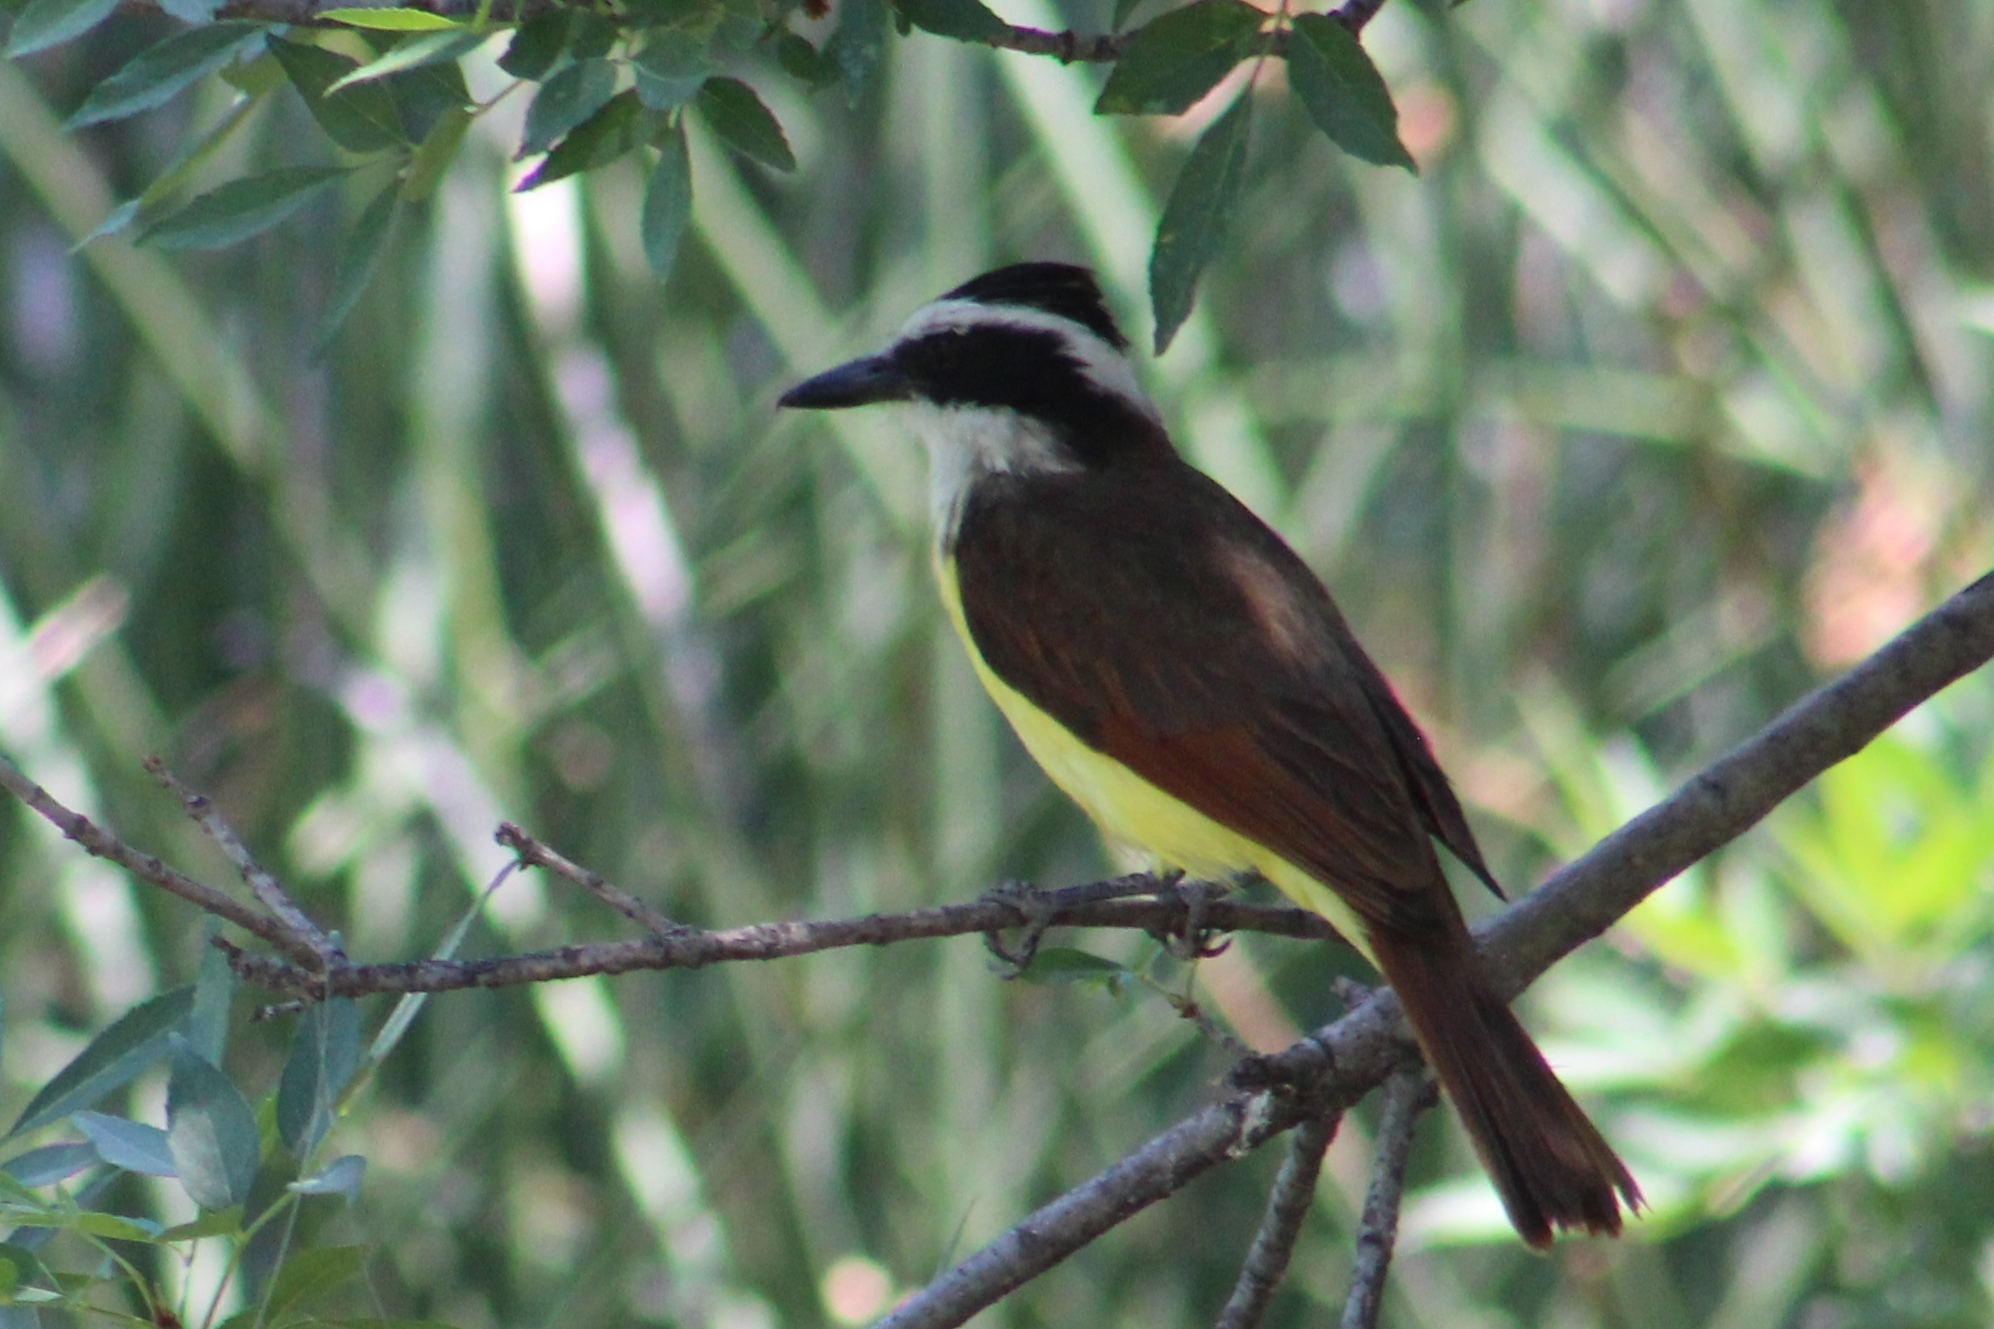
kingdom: Animalia
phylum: Chordata
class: Aves
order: Passeriformes
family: Tyrannidae
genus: Pitangus
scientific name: Pitangus sulphuratus
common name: Great kiskadee
